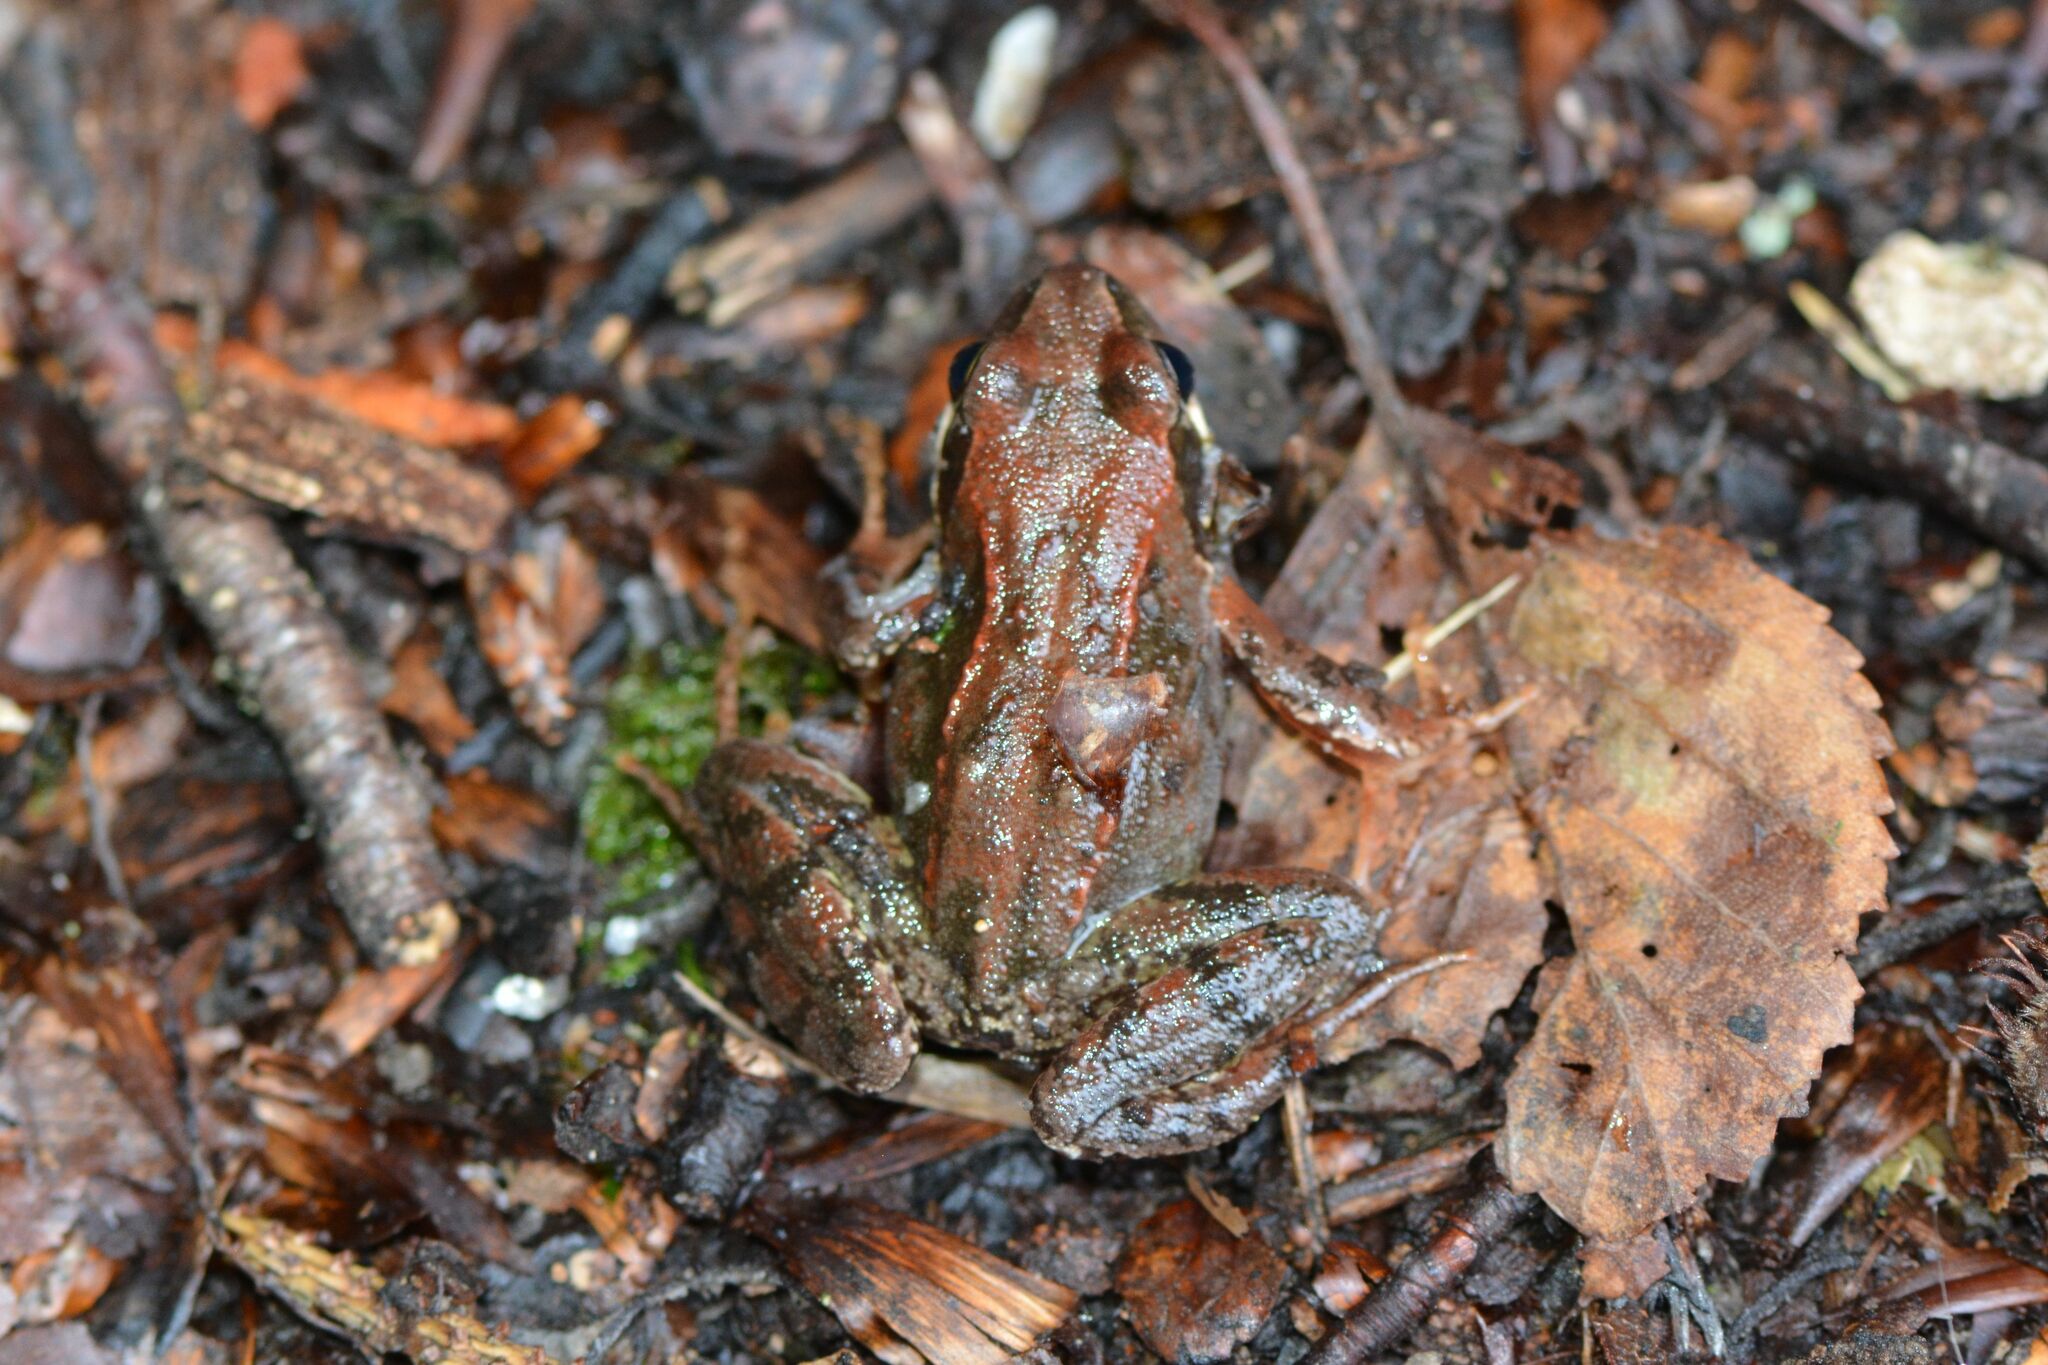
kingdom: Animalia
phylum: Chordata
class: Amphibia
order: Anura
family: Ranidae
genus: Rana
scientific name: Rana temporaria
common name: Common frog
